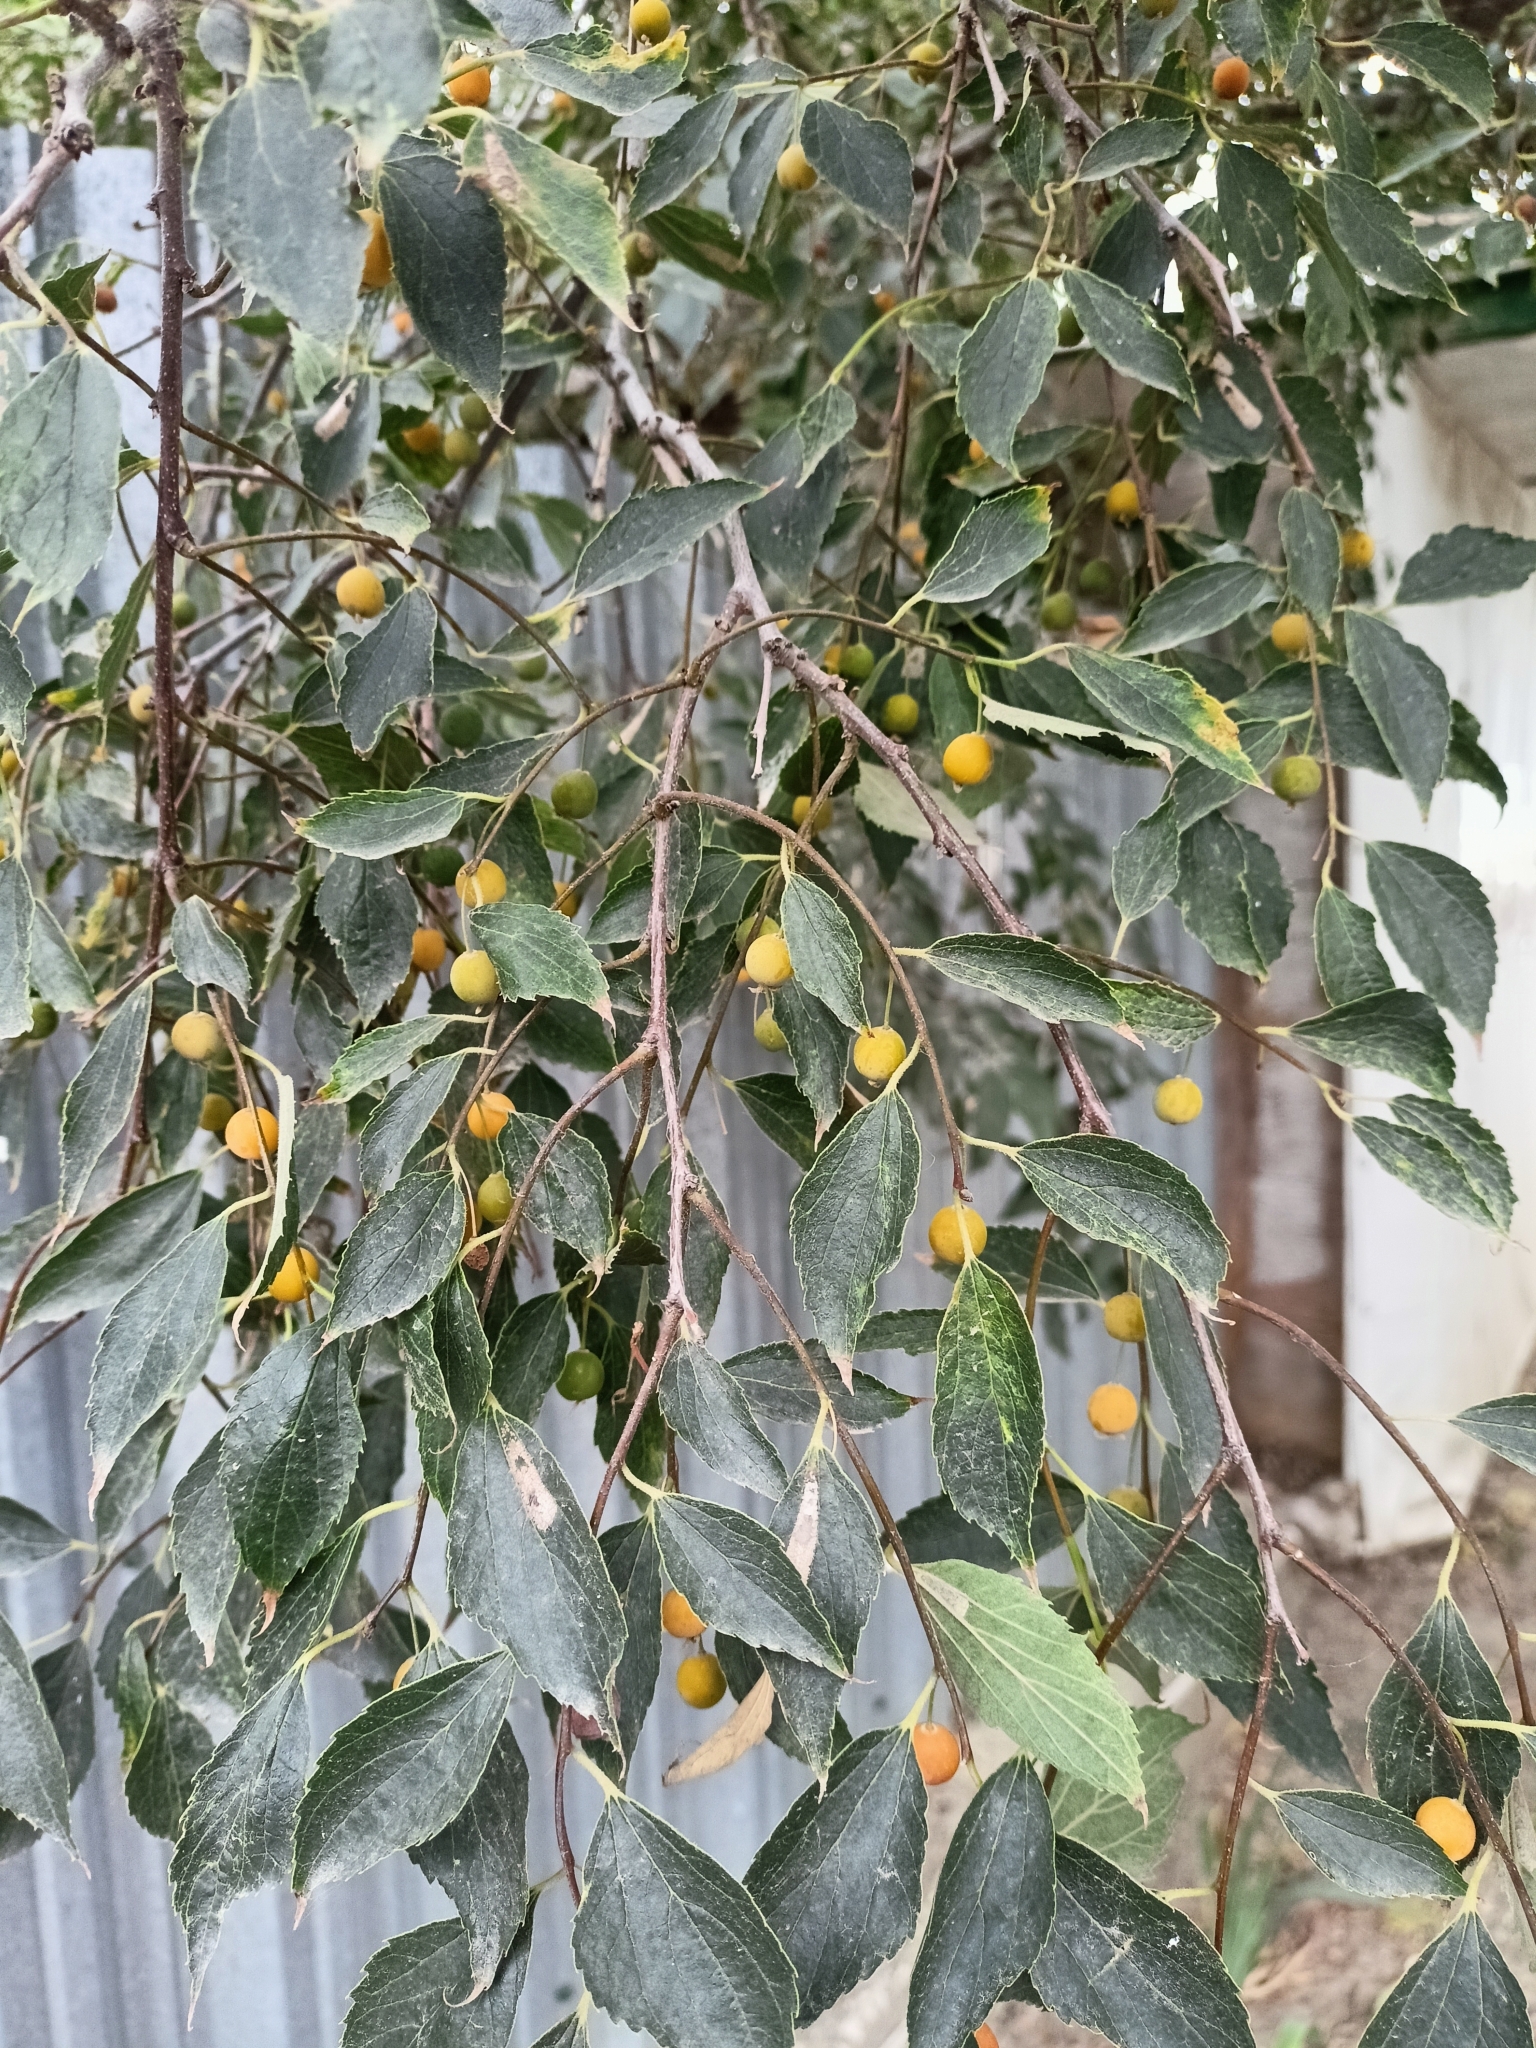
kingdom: Plantae
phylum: Tracheophyta
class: Magnoliopsida
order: Rosales
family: Cannabaceae
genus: Celtis
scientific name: Celtis occidentalis
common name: Common hackberry
